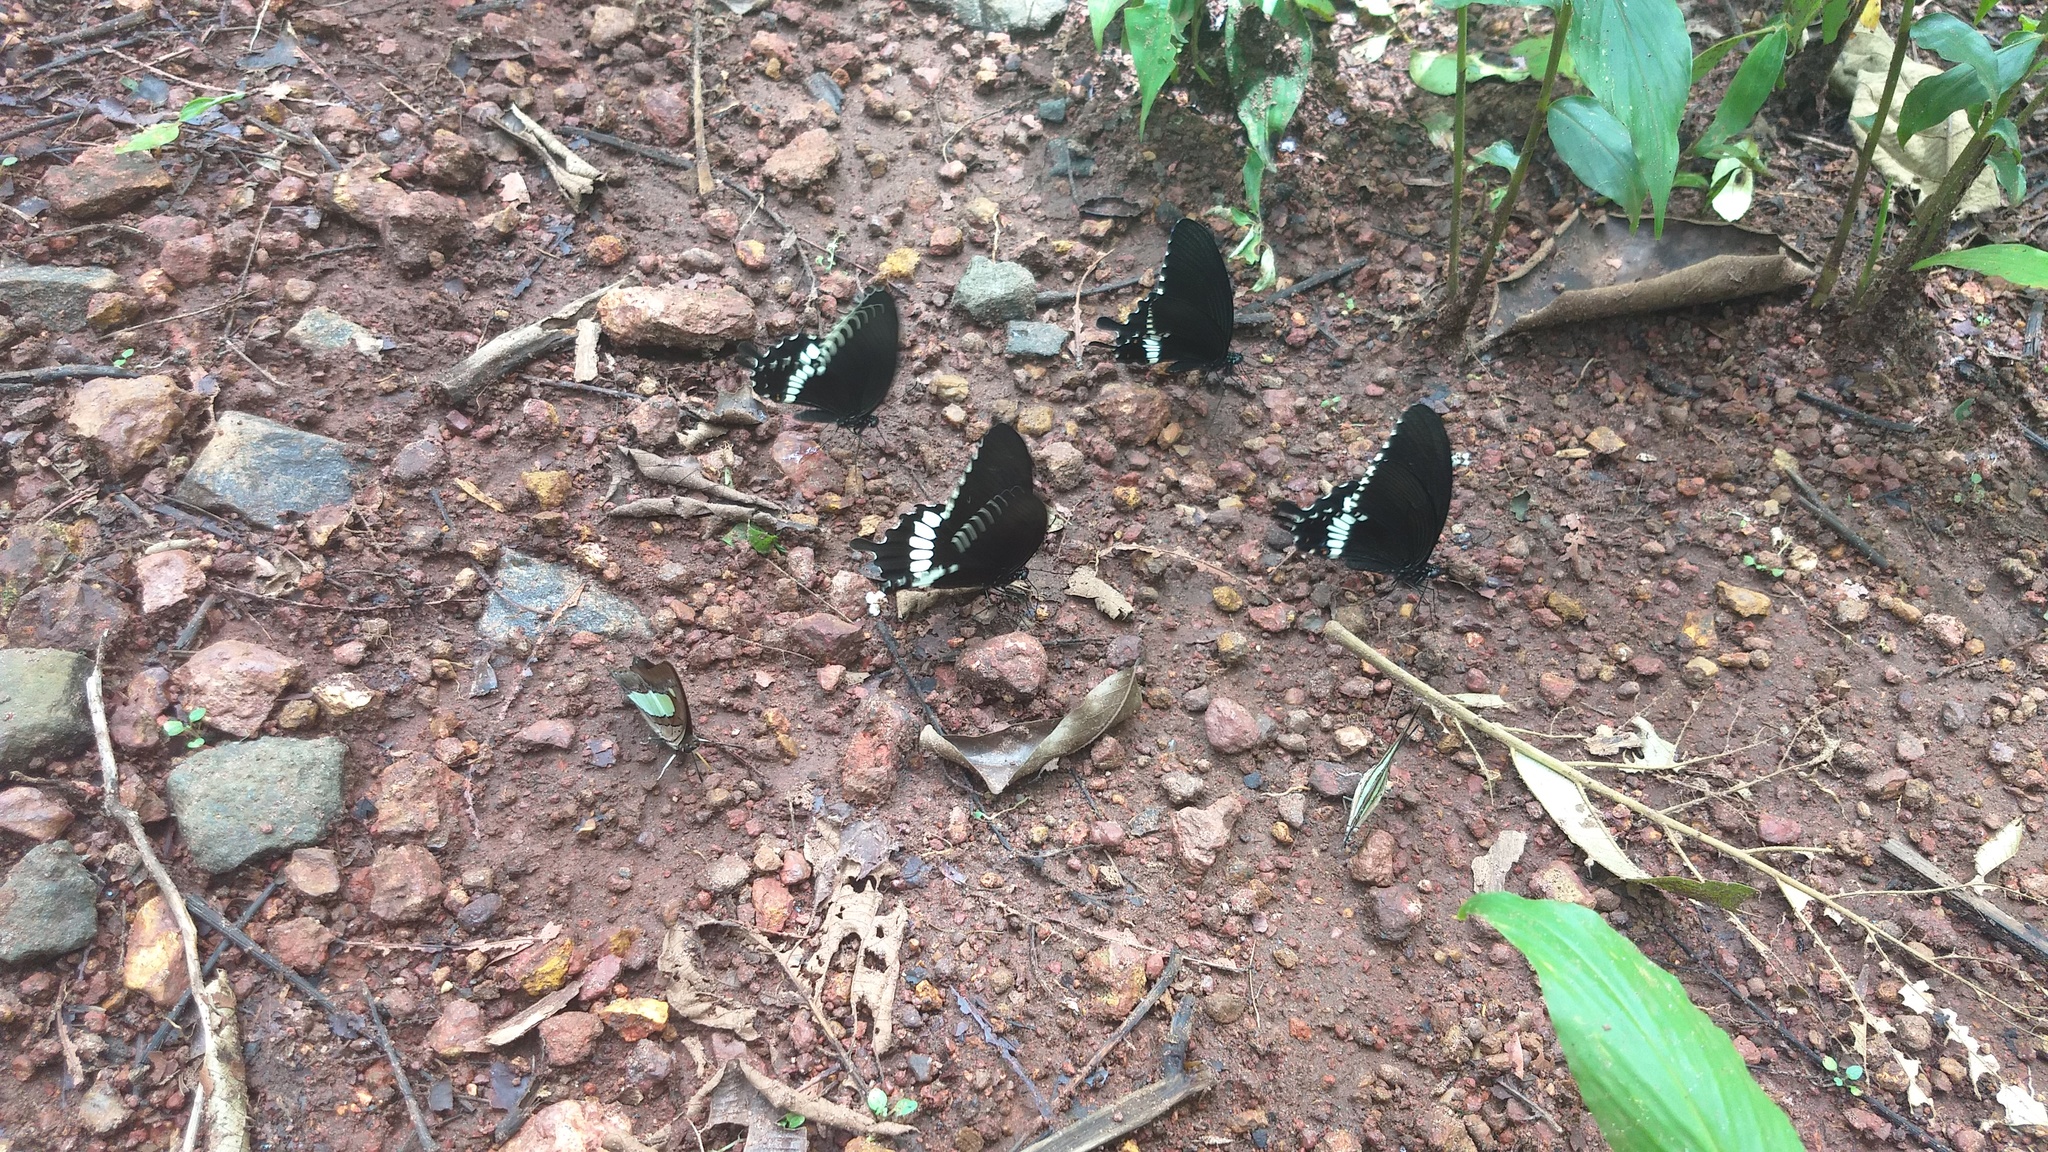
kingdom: Animalia
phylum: Arthropoda
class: Insecta
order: Lepidoptera
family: Papilionidae
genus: Papilio
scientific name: Papilio polytes
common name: Common mormon
